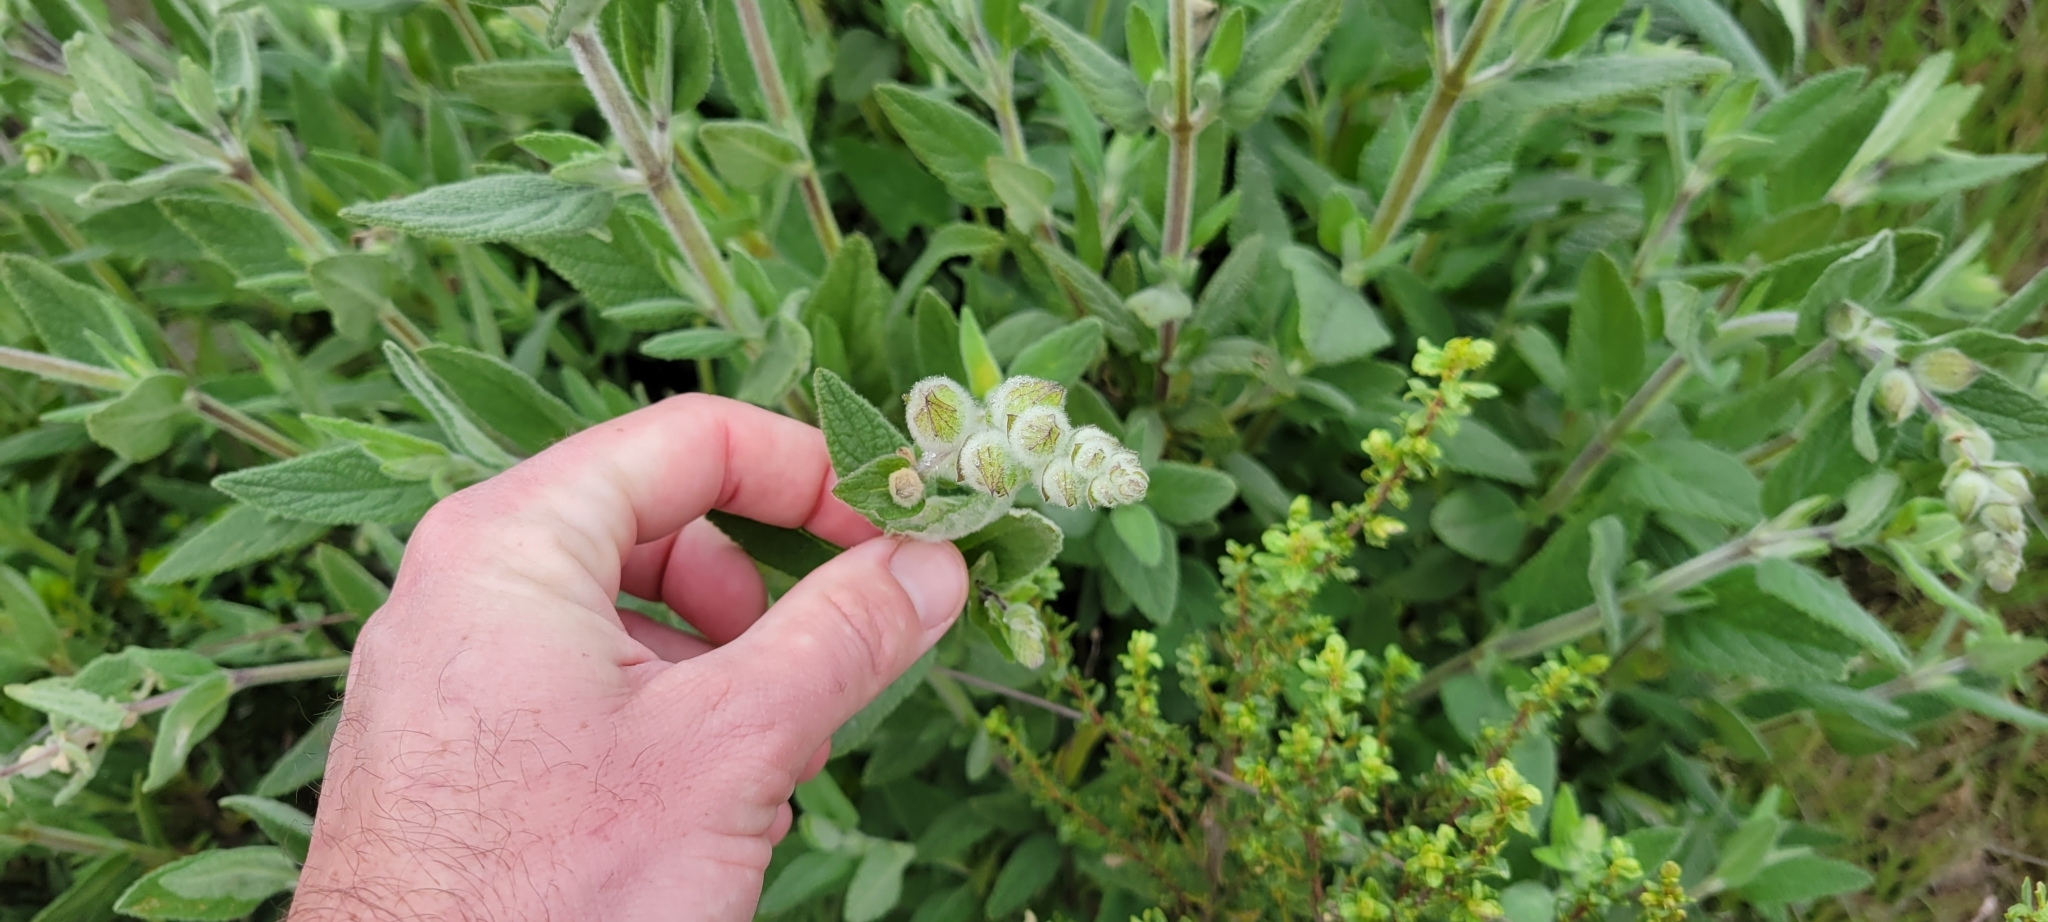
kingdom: Plantae
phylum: Tracheophyta
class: Magnoliopsida
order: Lamiales
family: Lamiaceae
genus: Lepechinia
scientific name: Lepechinia calycina
